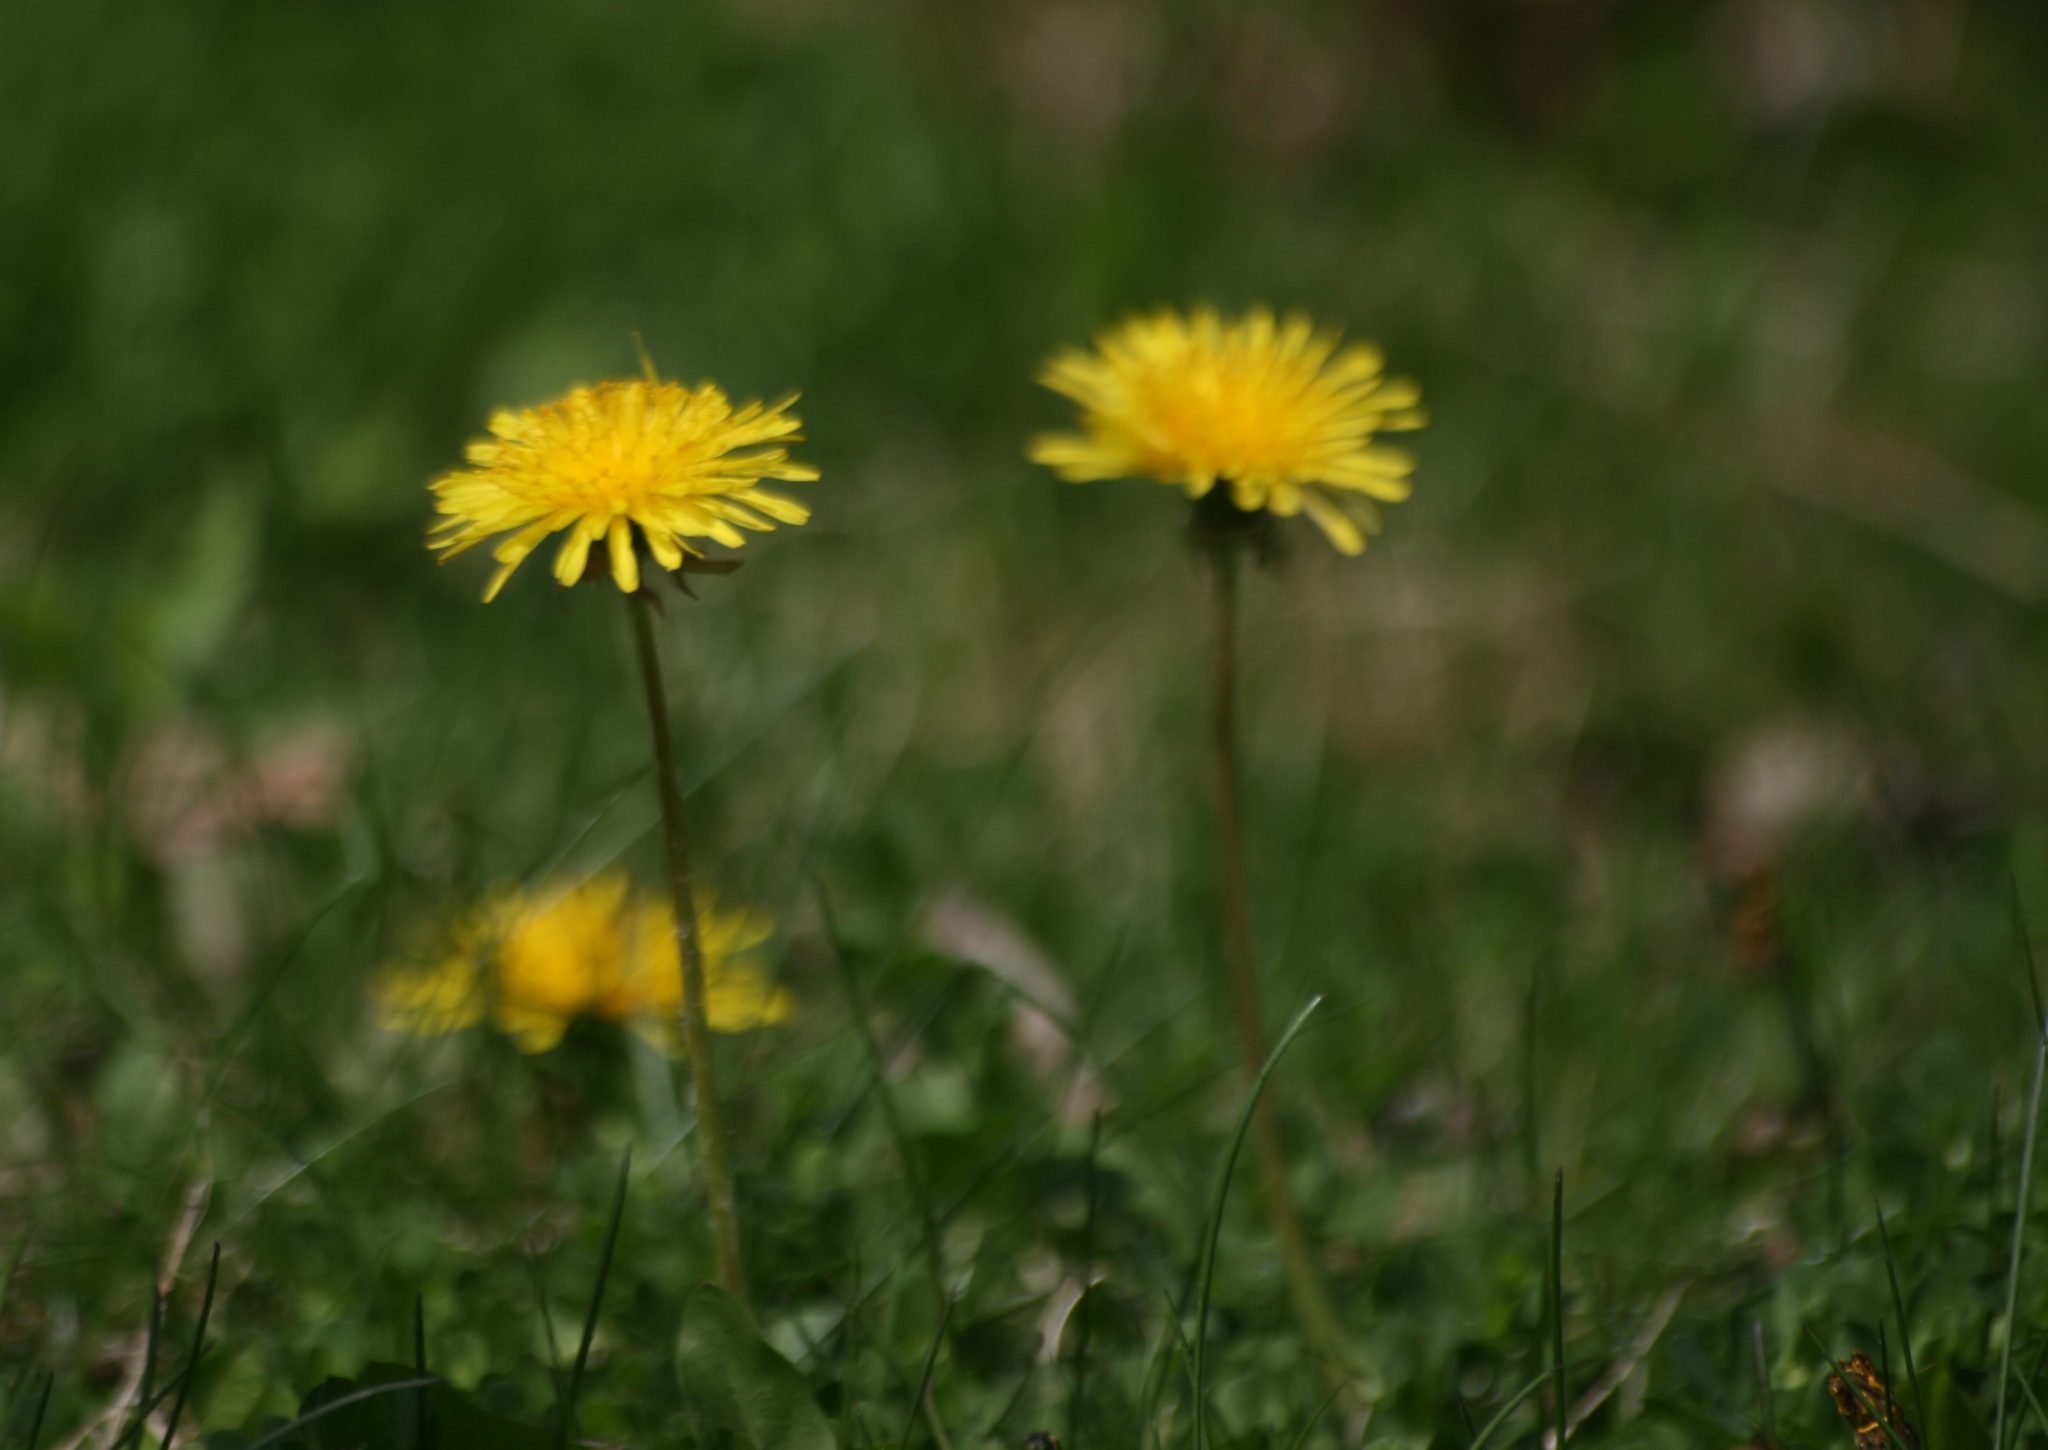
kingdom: Plantae
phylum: Tracheophyta
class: Magnoliopsida
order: Asterales
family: Asteraceae
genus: Taraxacum
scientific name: Taraxacum officinale
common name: Common dandelion
